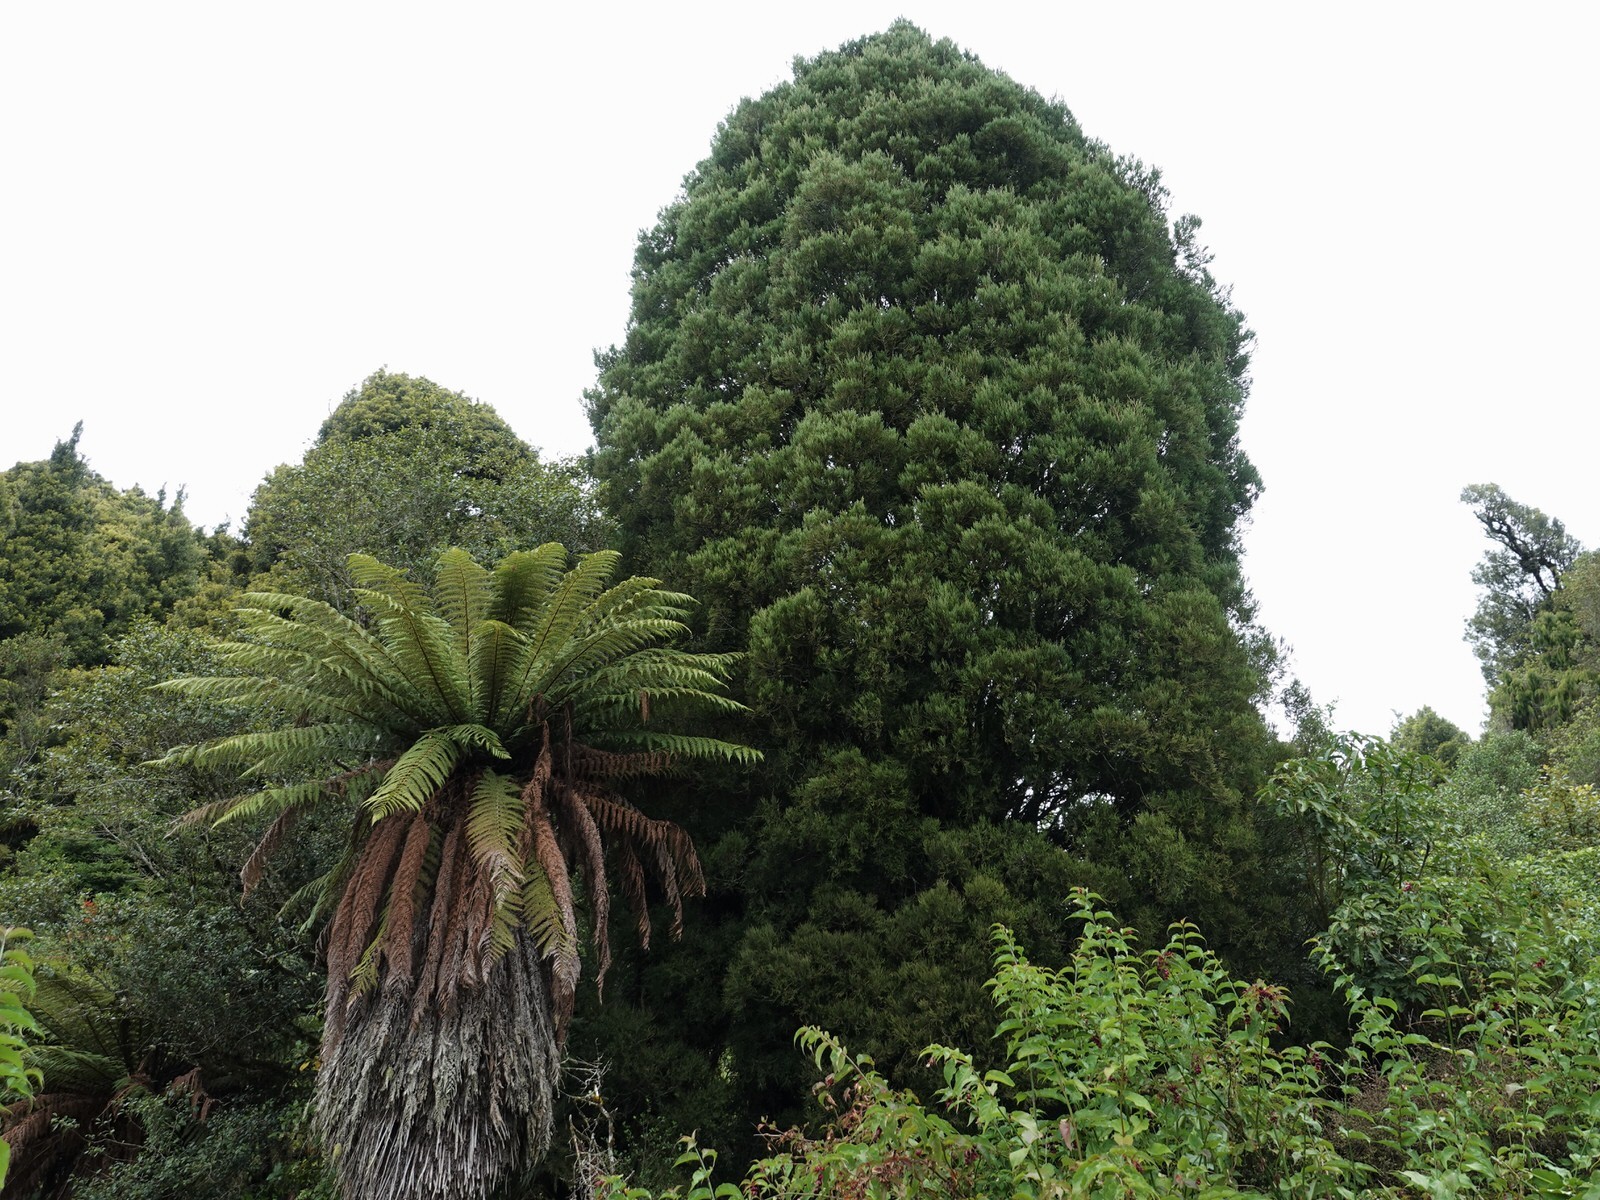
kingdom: Plantae
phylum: Tracheophyta
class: Polypodiopsida
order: Cyatheales
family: Dicksoniaceae
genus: Dicksonia
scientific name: Dicksonia fibrosa
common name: Golden tree fern
